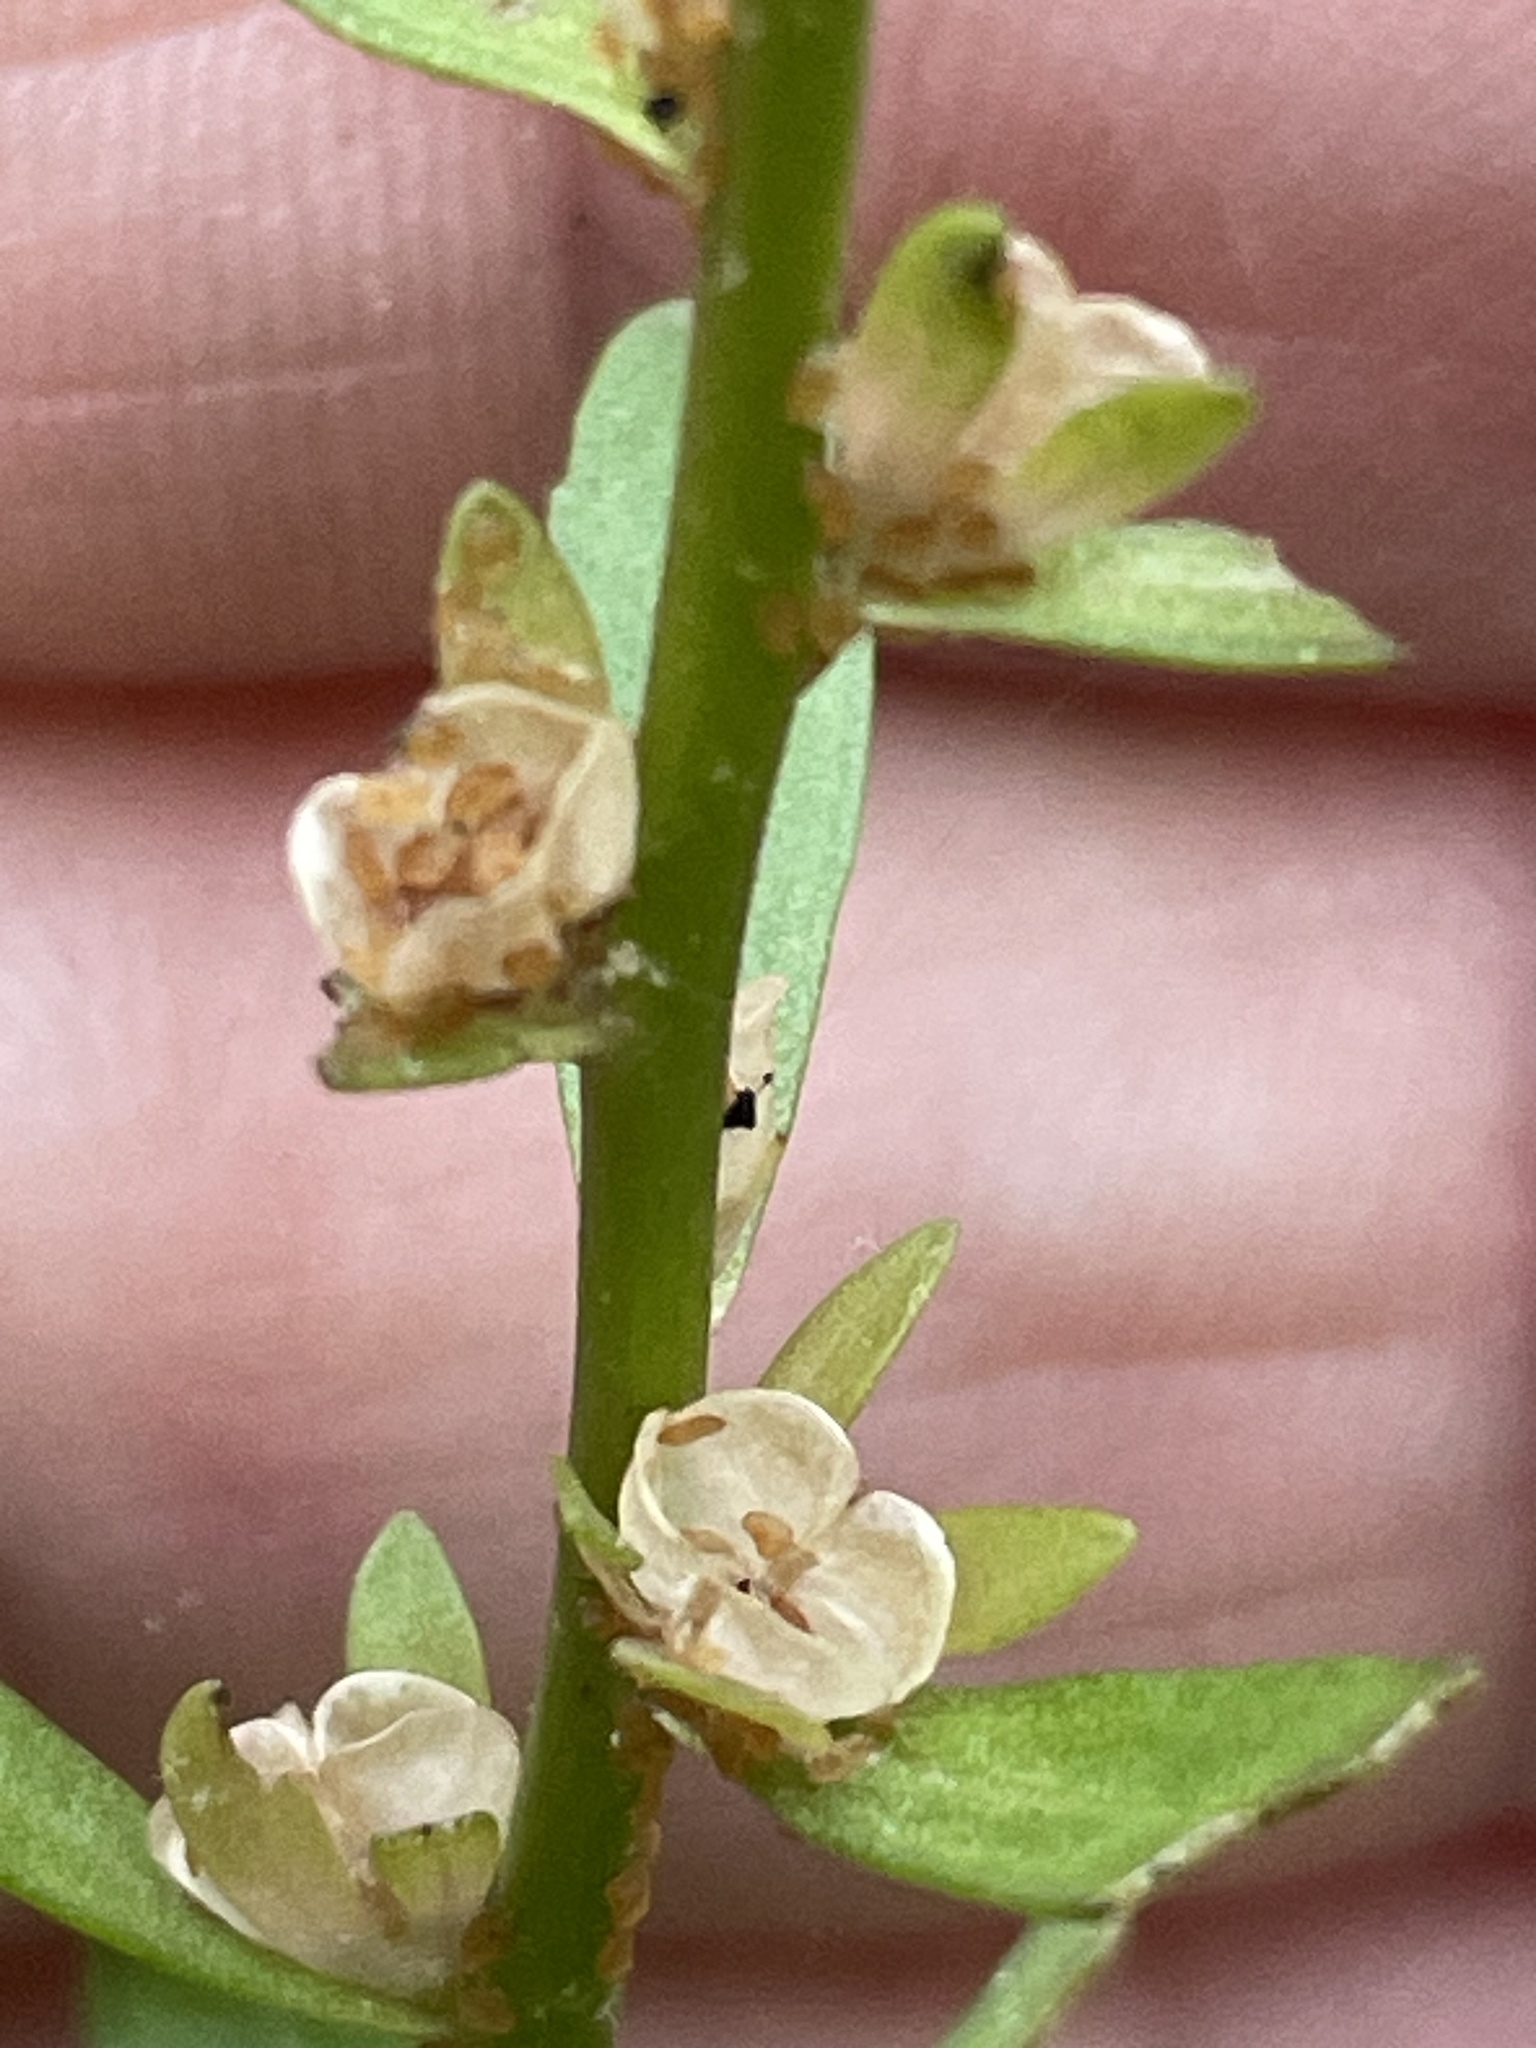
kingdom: Plantae
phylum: Tracheophyta
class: Magnoliopsida
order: Lamiales
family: Plantaginaceae
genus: Veronica
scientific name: Veronica peregrina
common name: Neckweed
